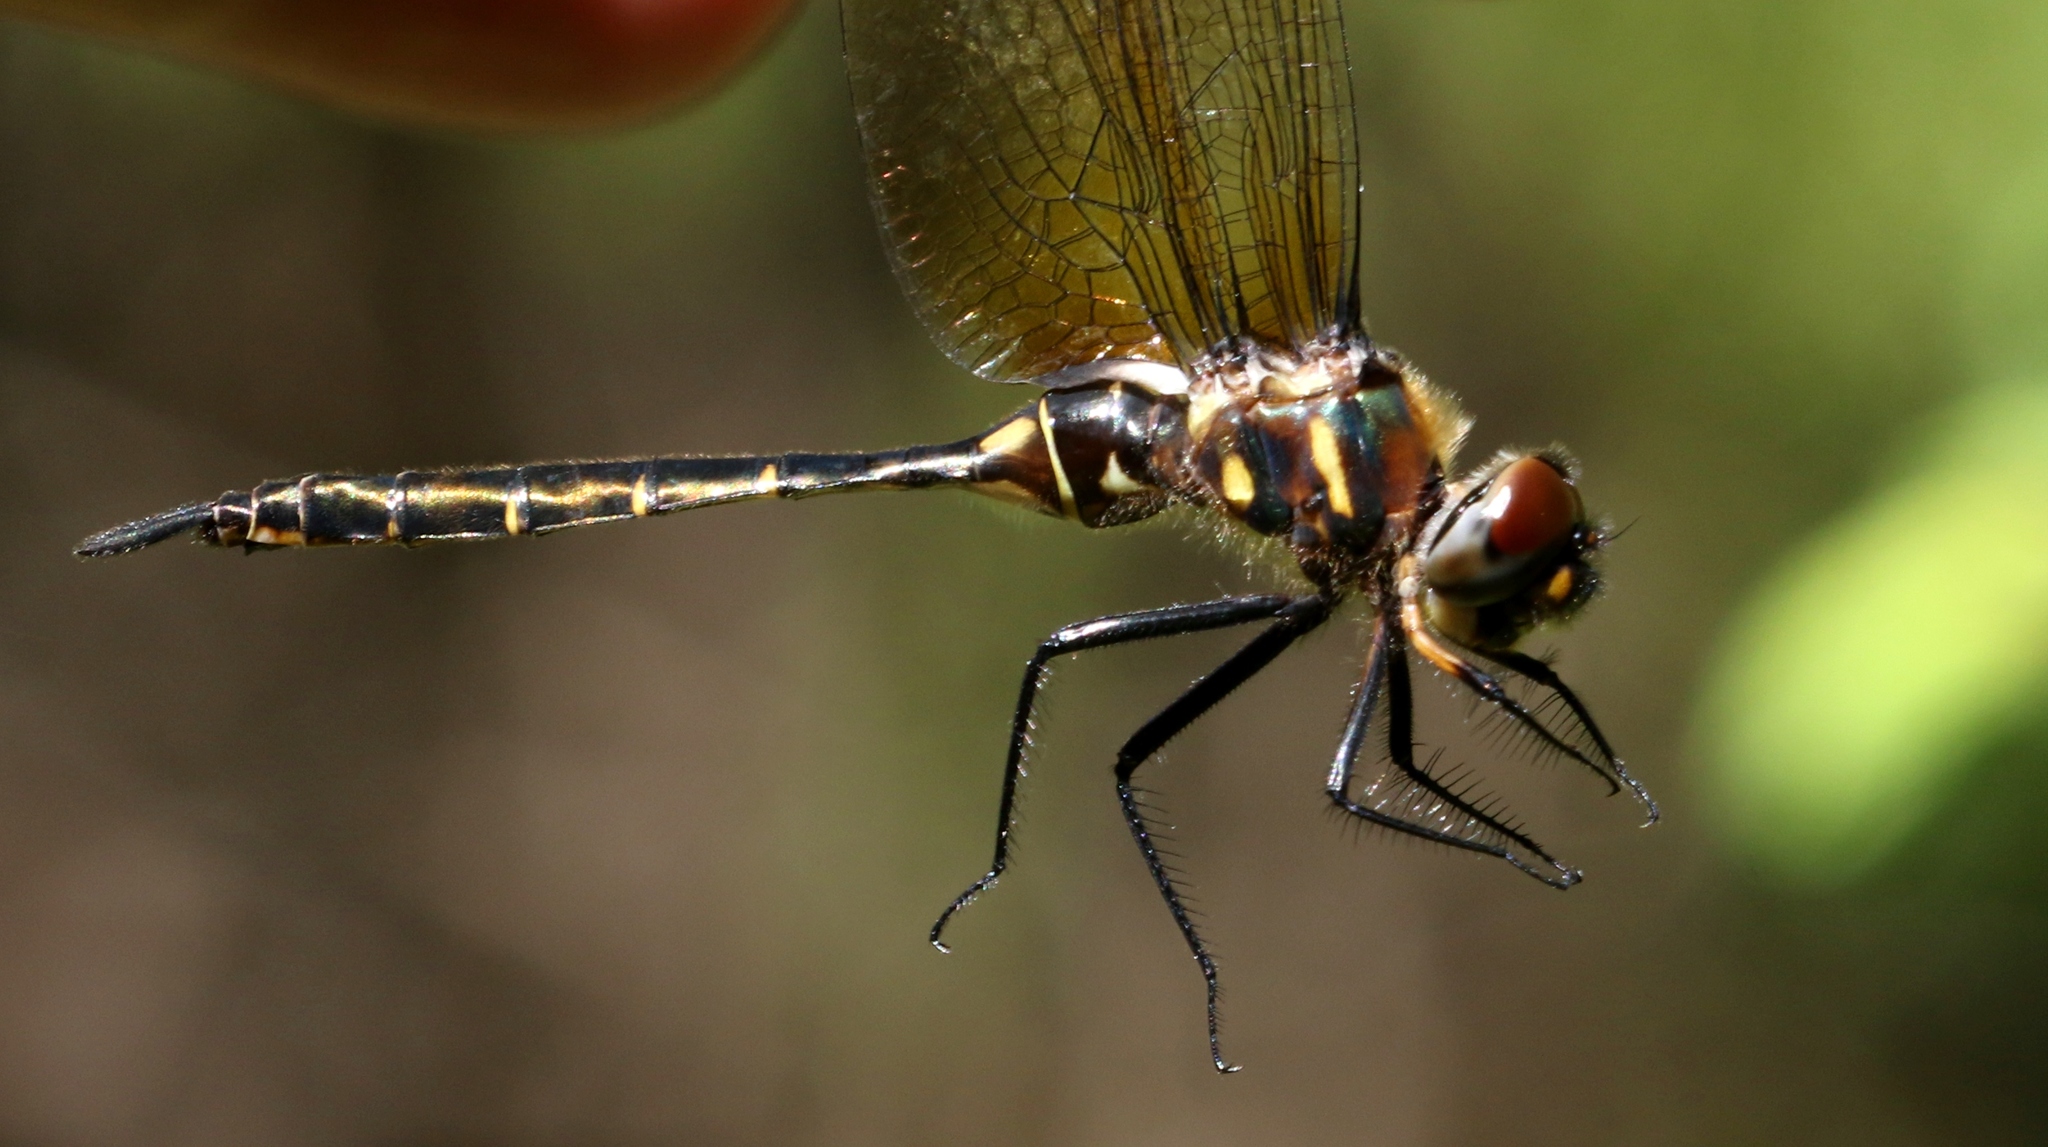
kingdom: Animalia
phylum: Arthropoda
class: Insecta
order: Odonata
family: Corduliidae
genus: Somatochlora
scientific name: Somatochlora walshii
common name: Brush-tipped emerald
